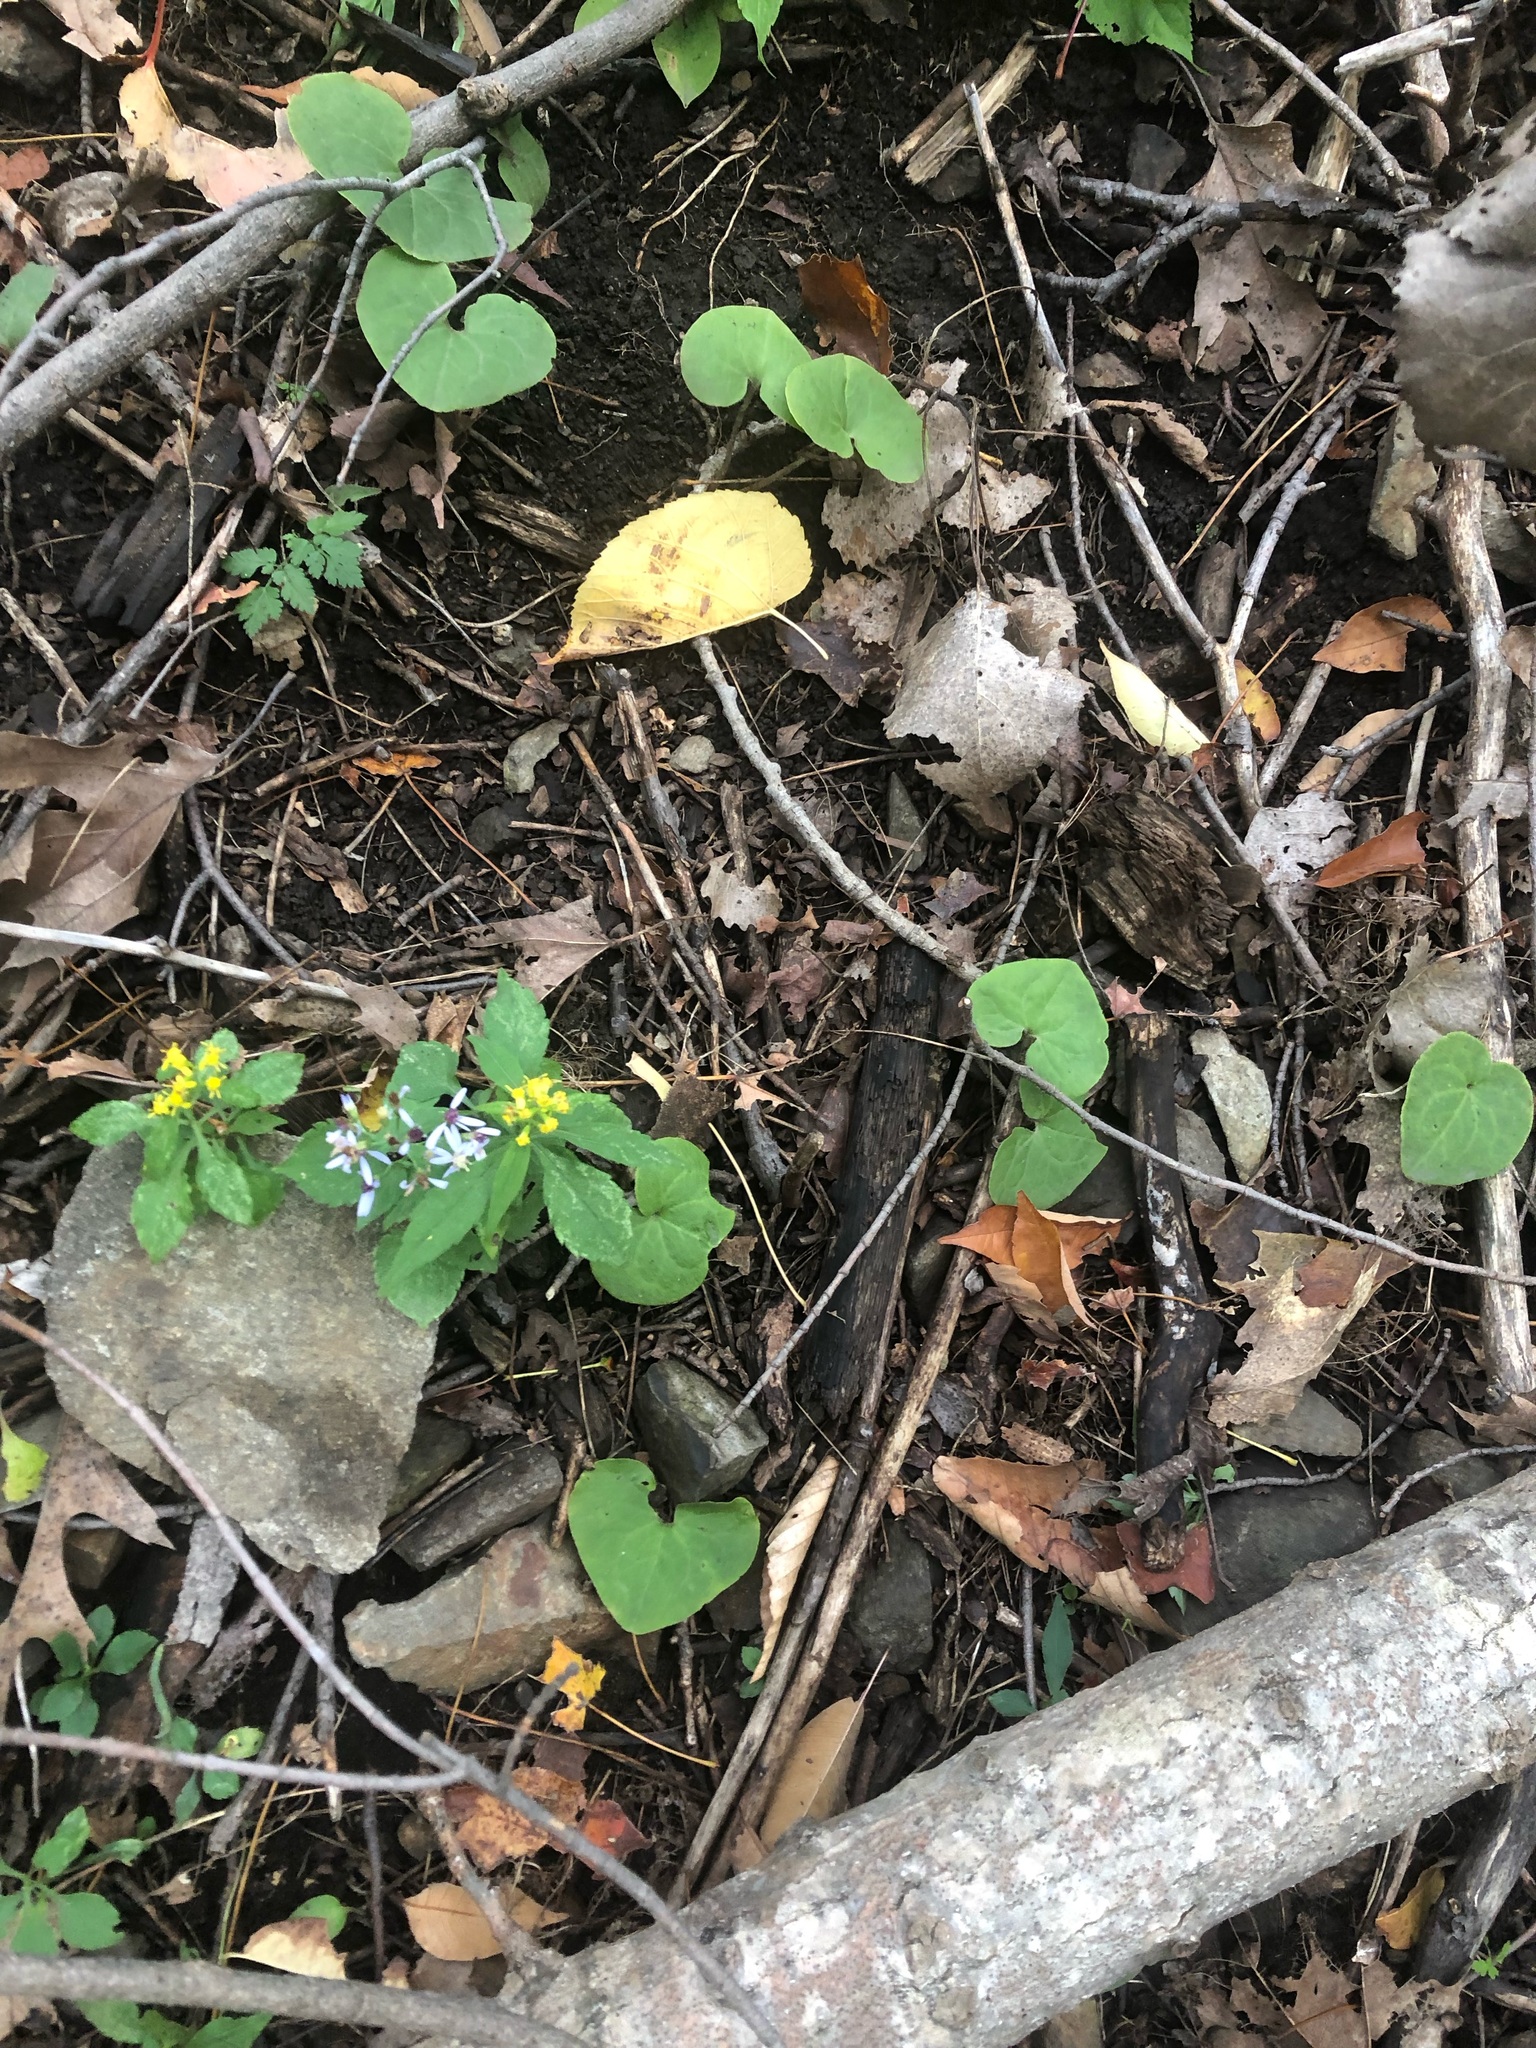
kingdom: Plantae
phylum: Tracheophyta
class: Magnoliopsida
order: Piperales
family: Aristolochiaceae
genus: Asarum
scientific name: Asarum canadense
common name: Wild ginger
